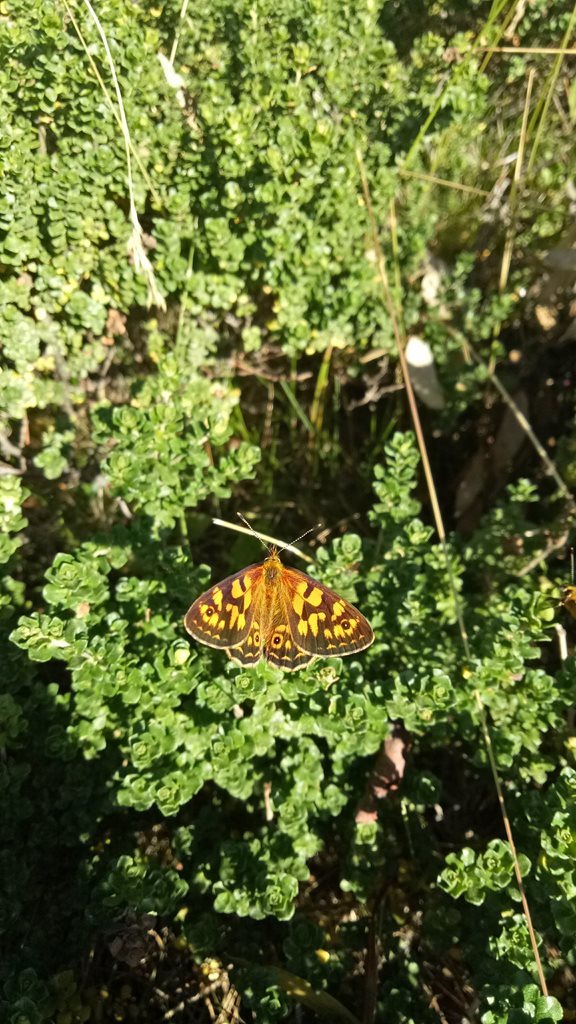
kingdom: Animalia
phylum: Arthropoda
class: Insecta
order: Lepidoptera
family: Nymphalidae
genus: Oreixenica
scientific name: Oreixenica correae
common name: Correa brown
